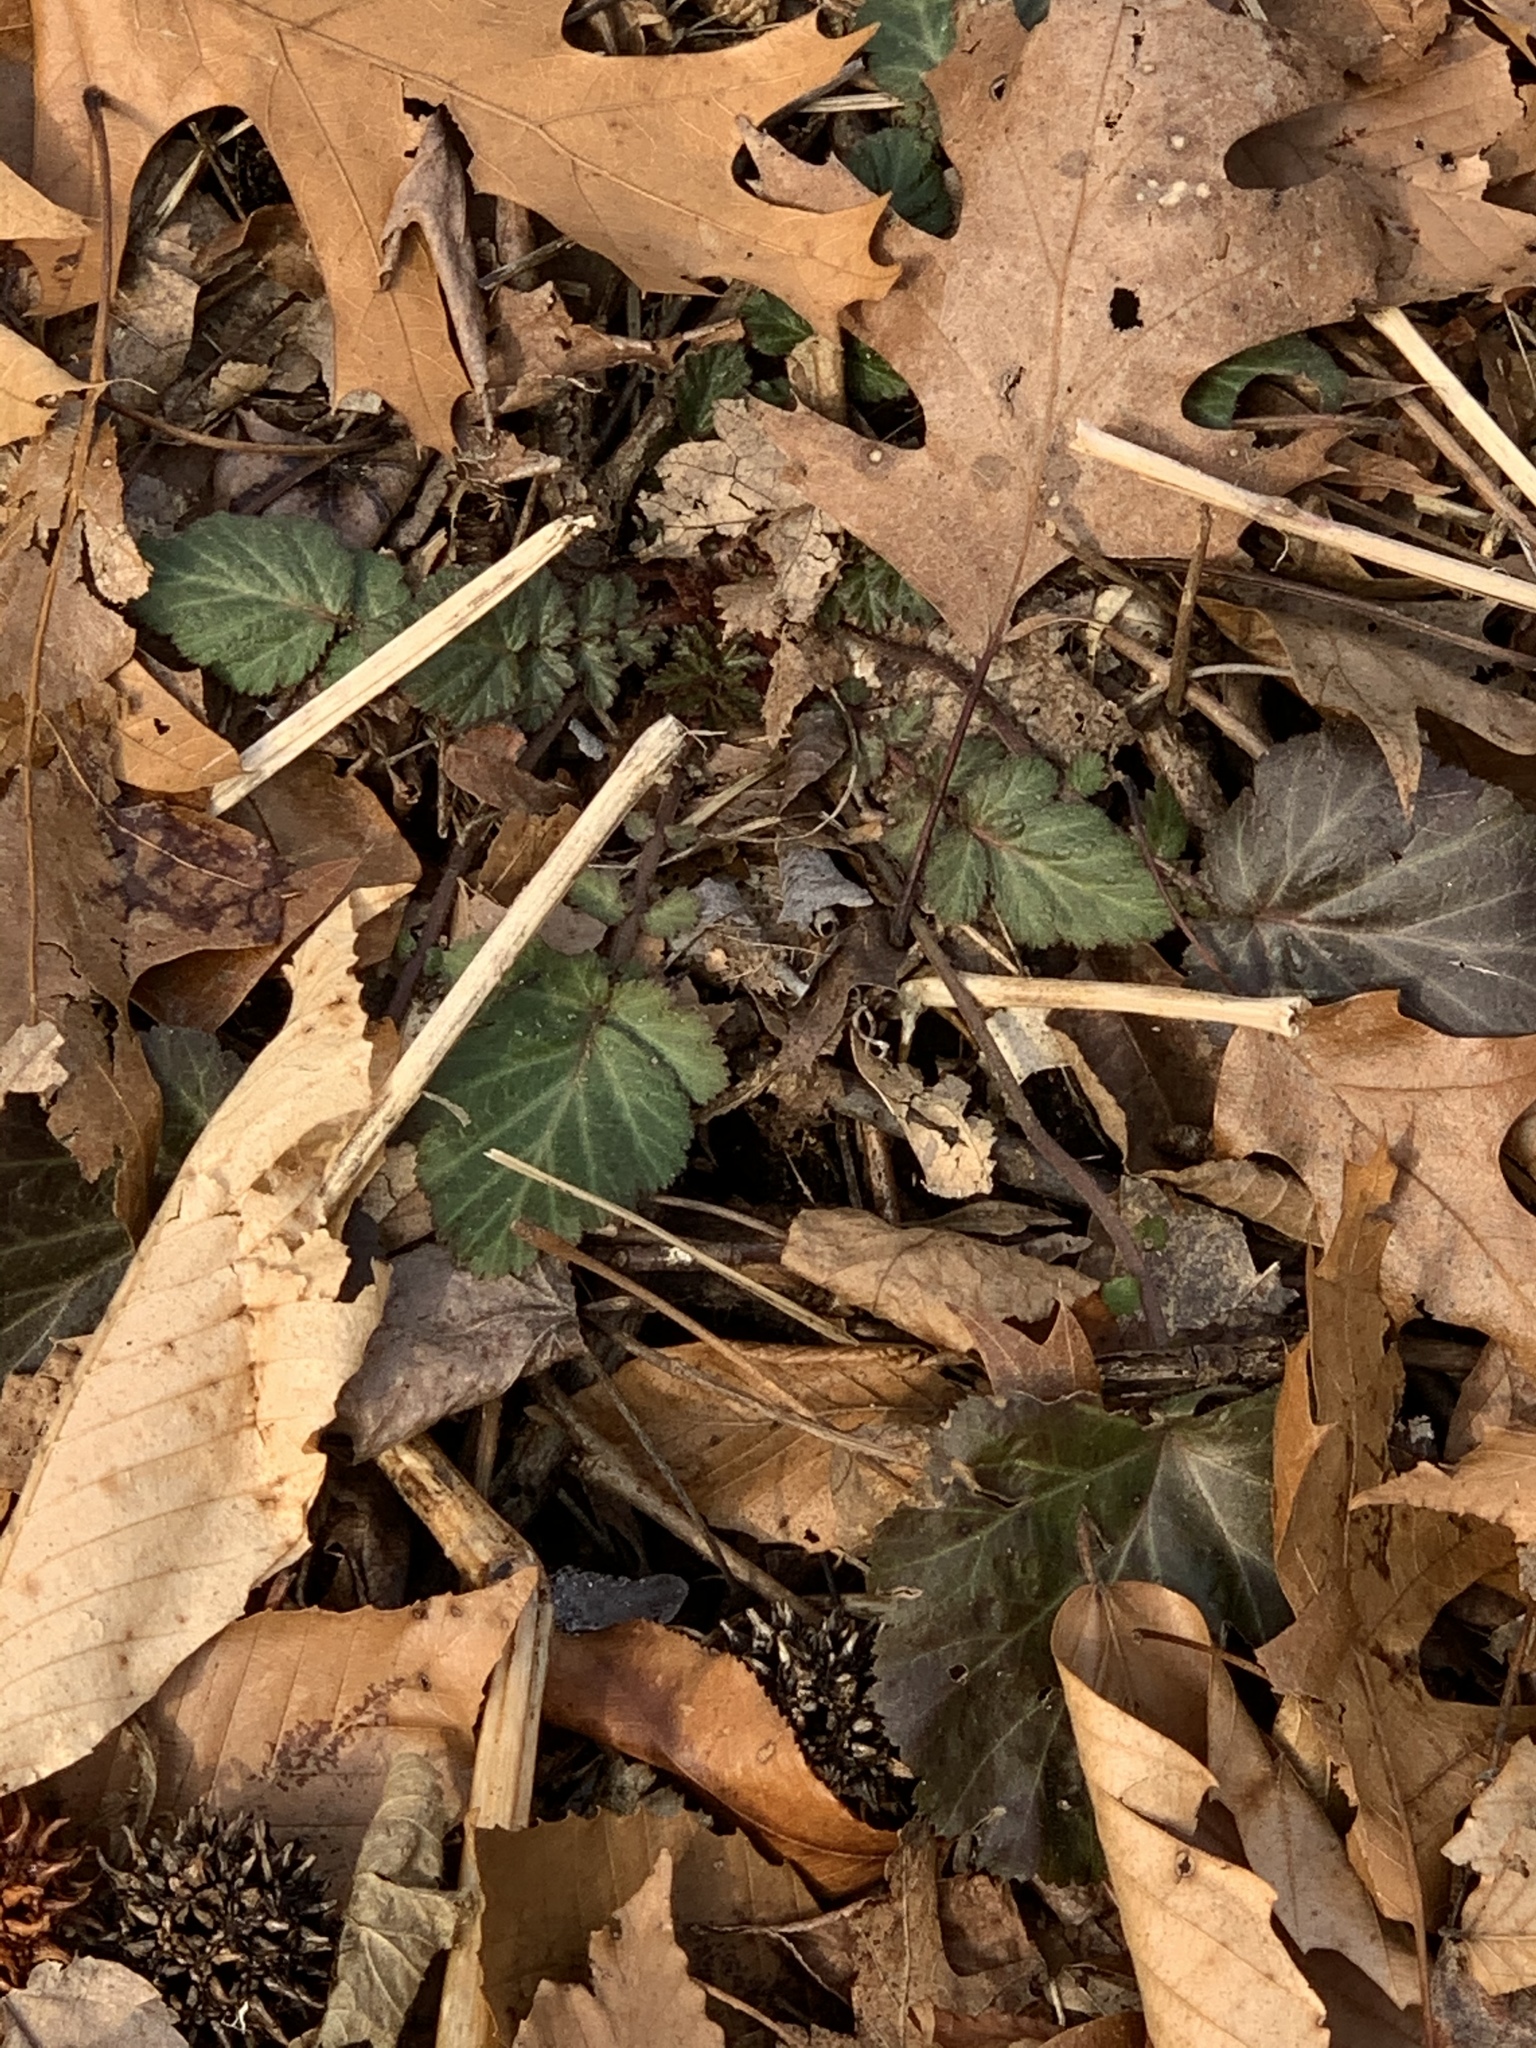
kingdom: Plantae
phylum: Tracheophyta
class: Magnoliopsida
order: Rosales
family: Rosaceae
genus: Geum
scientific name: Geum canadense
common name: White avens
